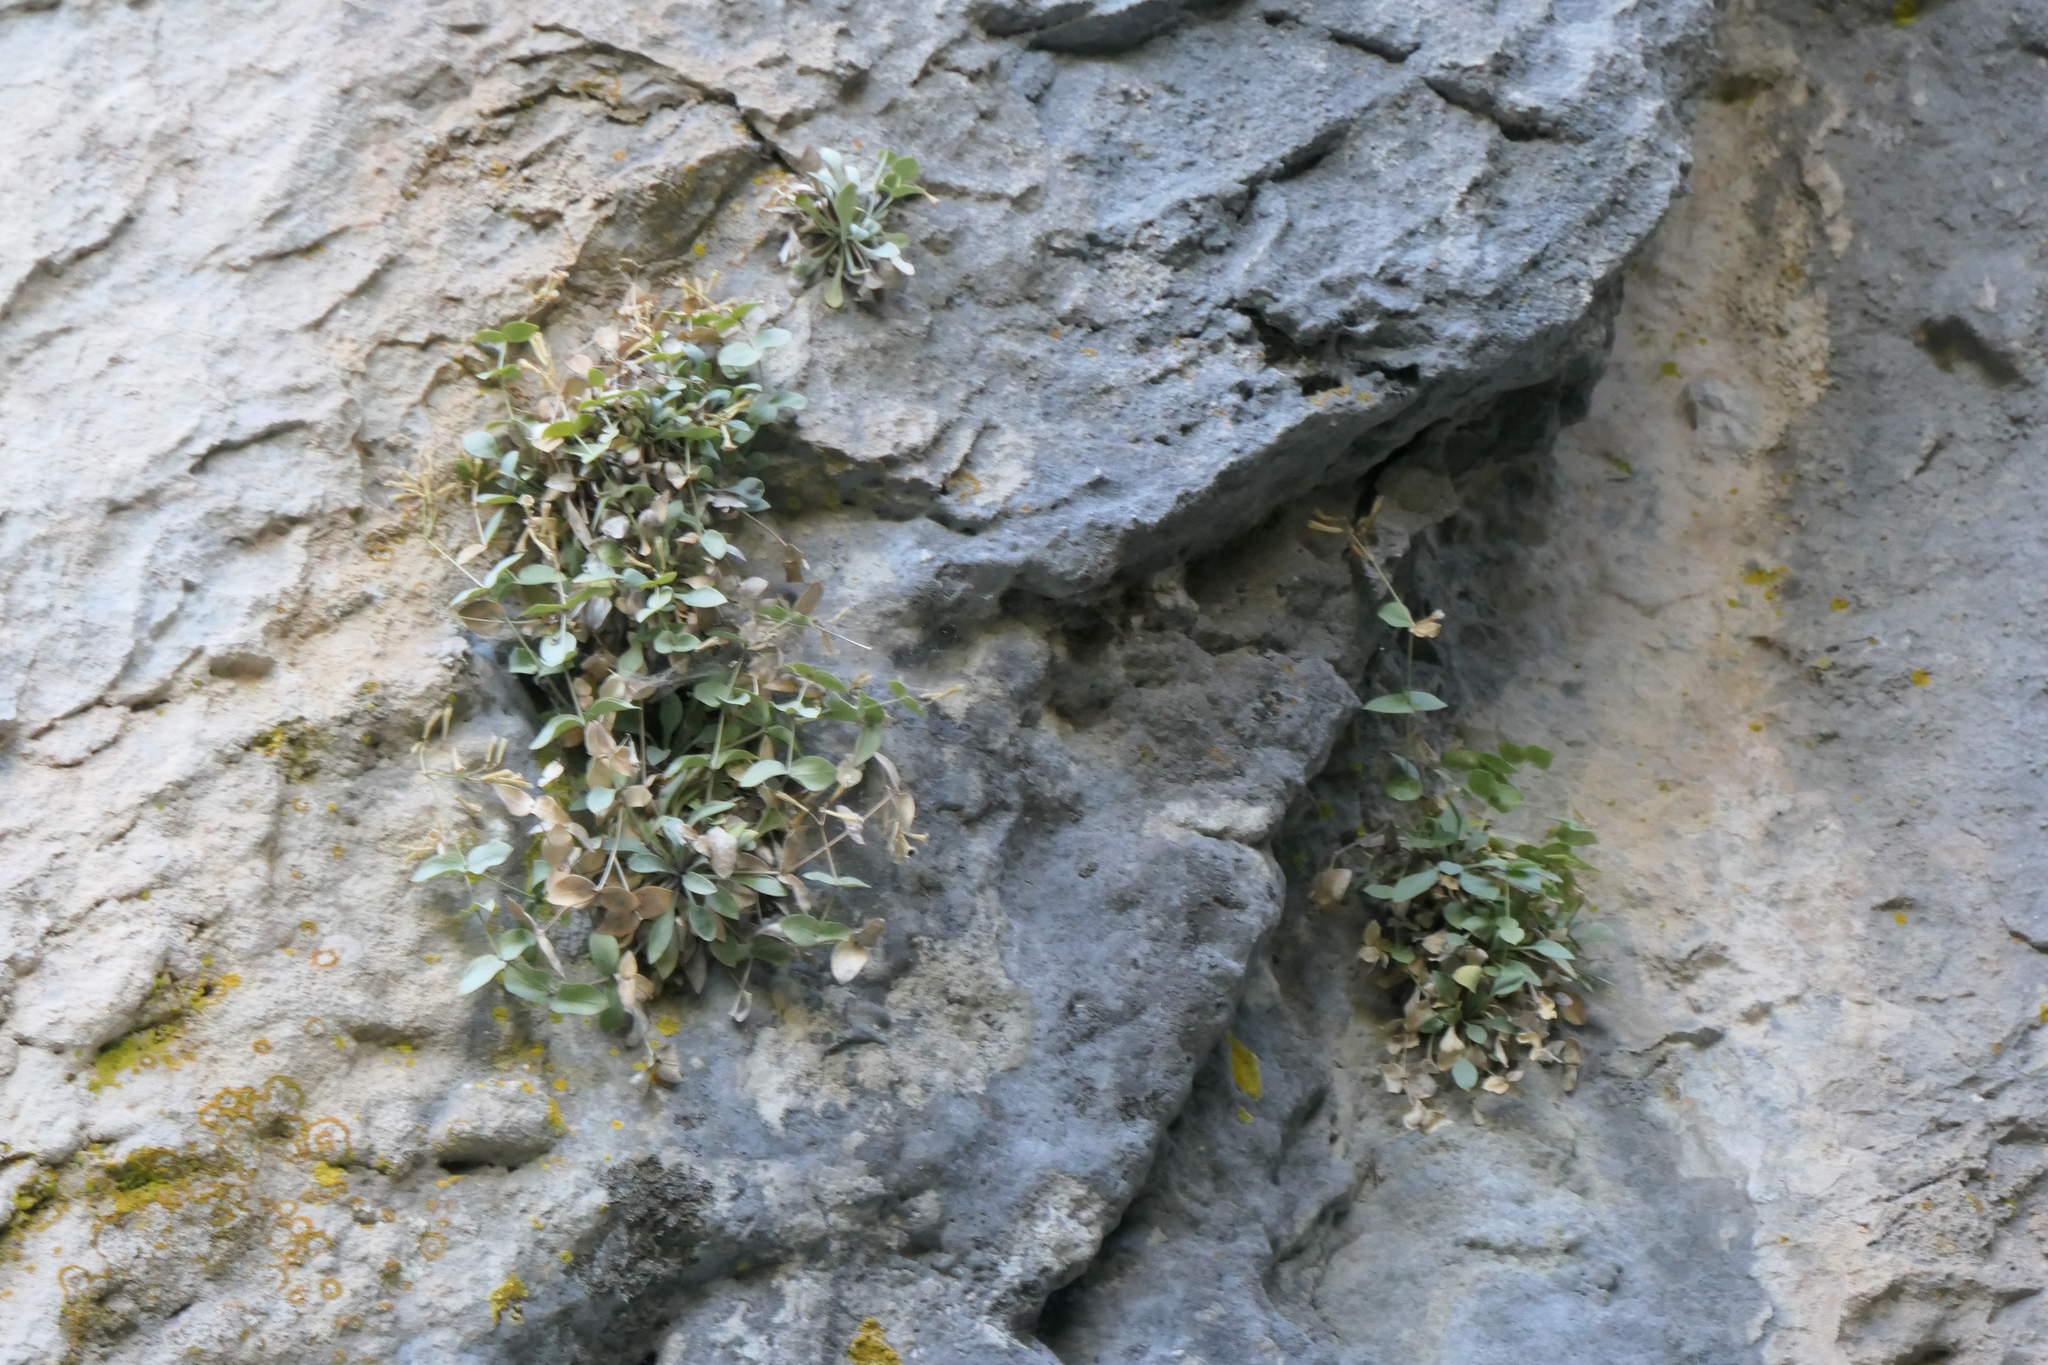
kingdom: Plantae
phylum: Tracheophyta
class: Magnoliopsida
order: Caryophyllales
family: Caryophyllaceae
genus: Petrocoptis
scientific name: Petrocoptis glaucifolia
